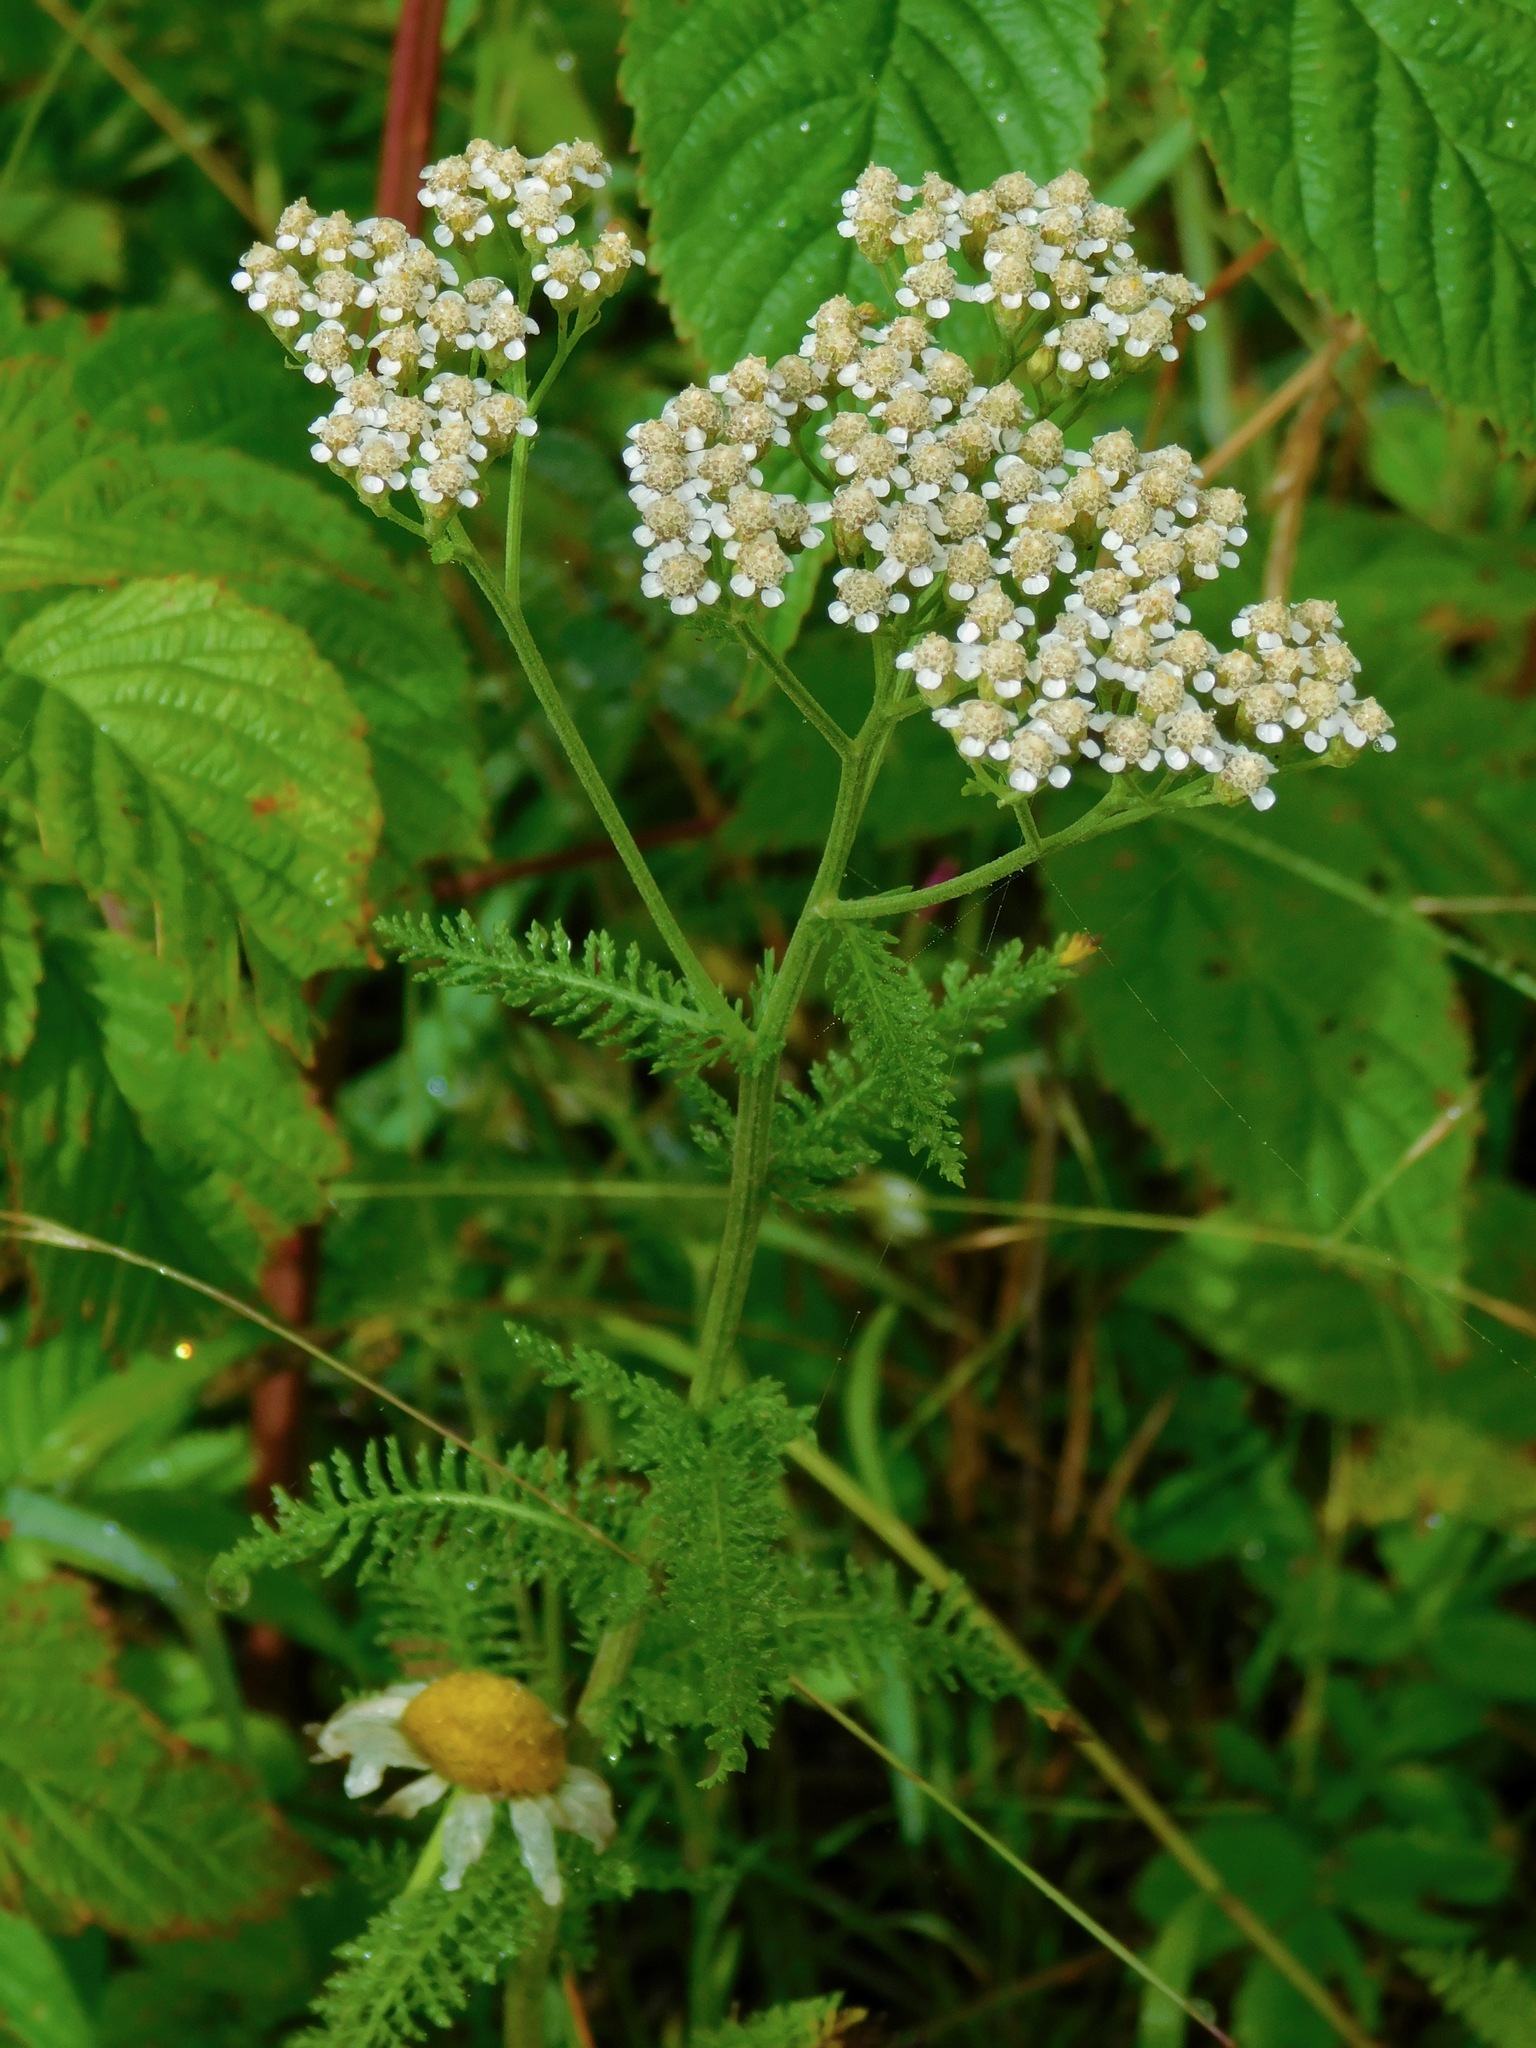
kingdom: Plantae
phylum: Tracheophyta
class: Magnoliopsida
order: Asterales
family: Asteraceae
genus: Achillea
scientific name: Achillea millefolium
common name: Yarrow
